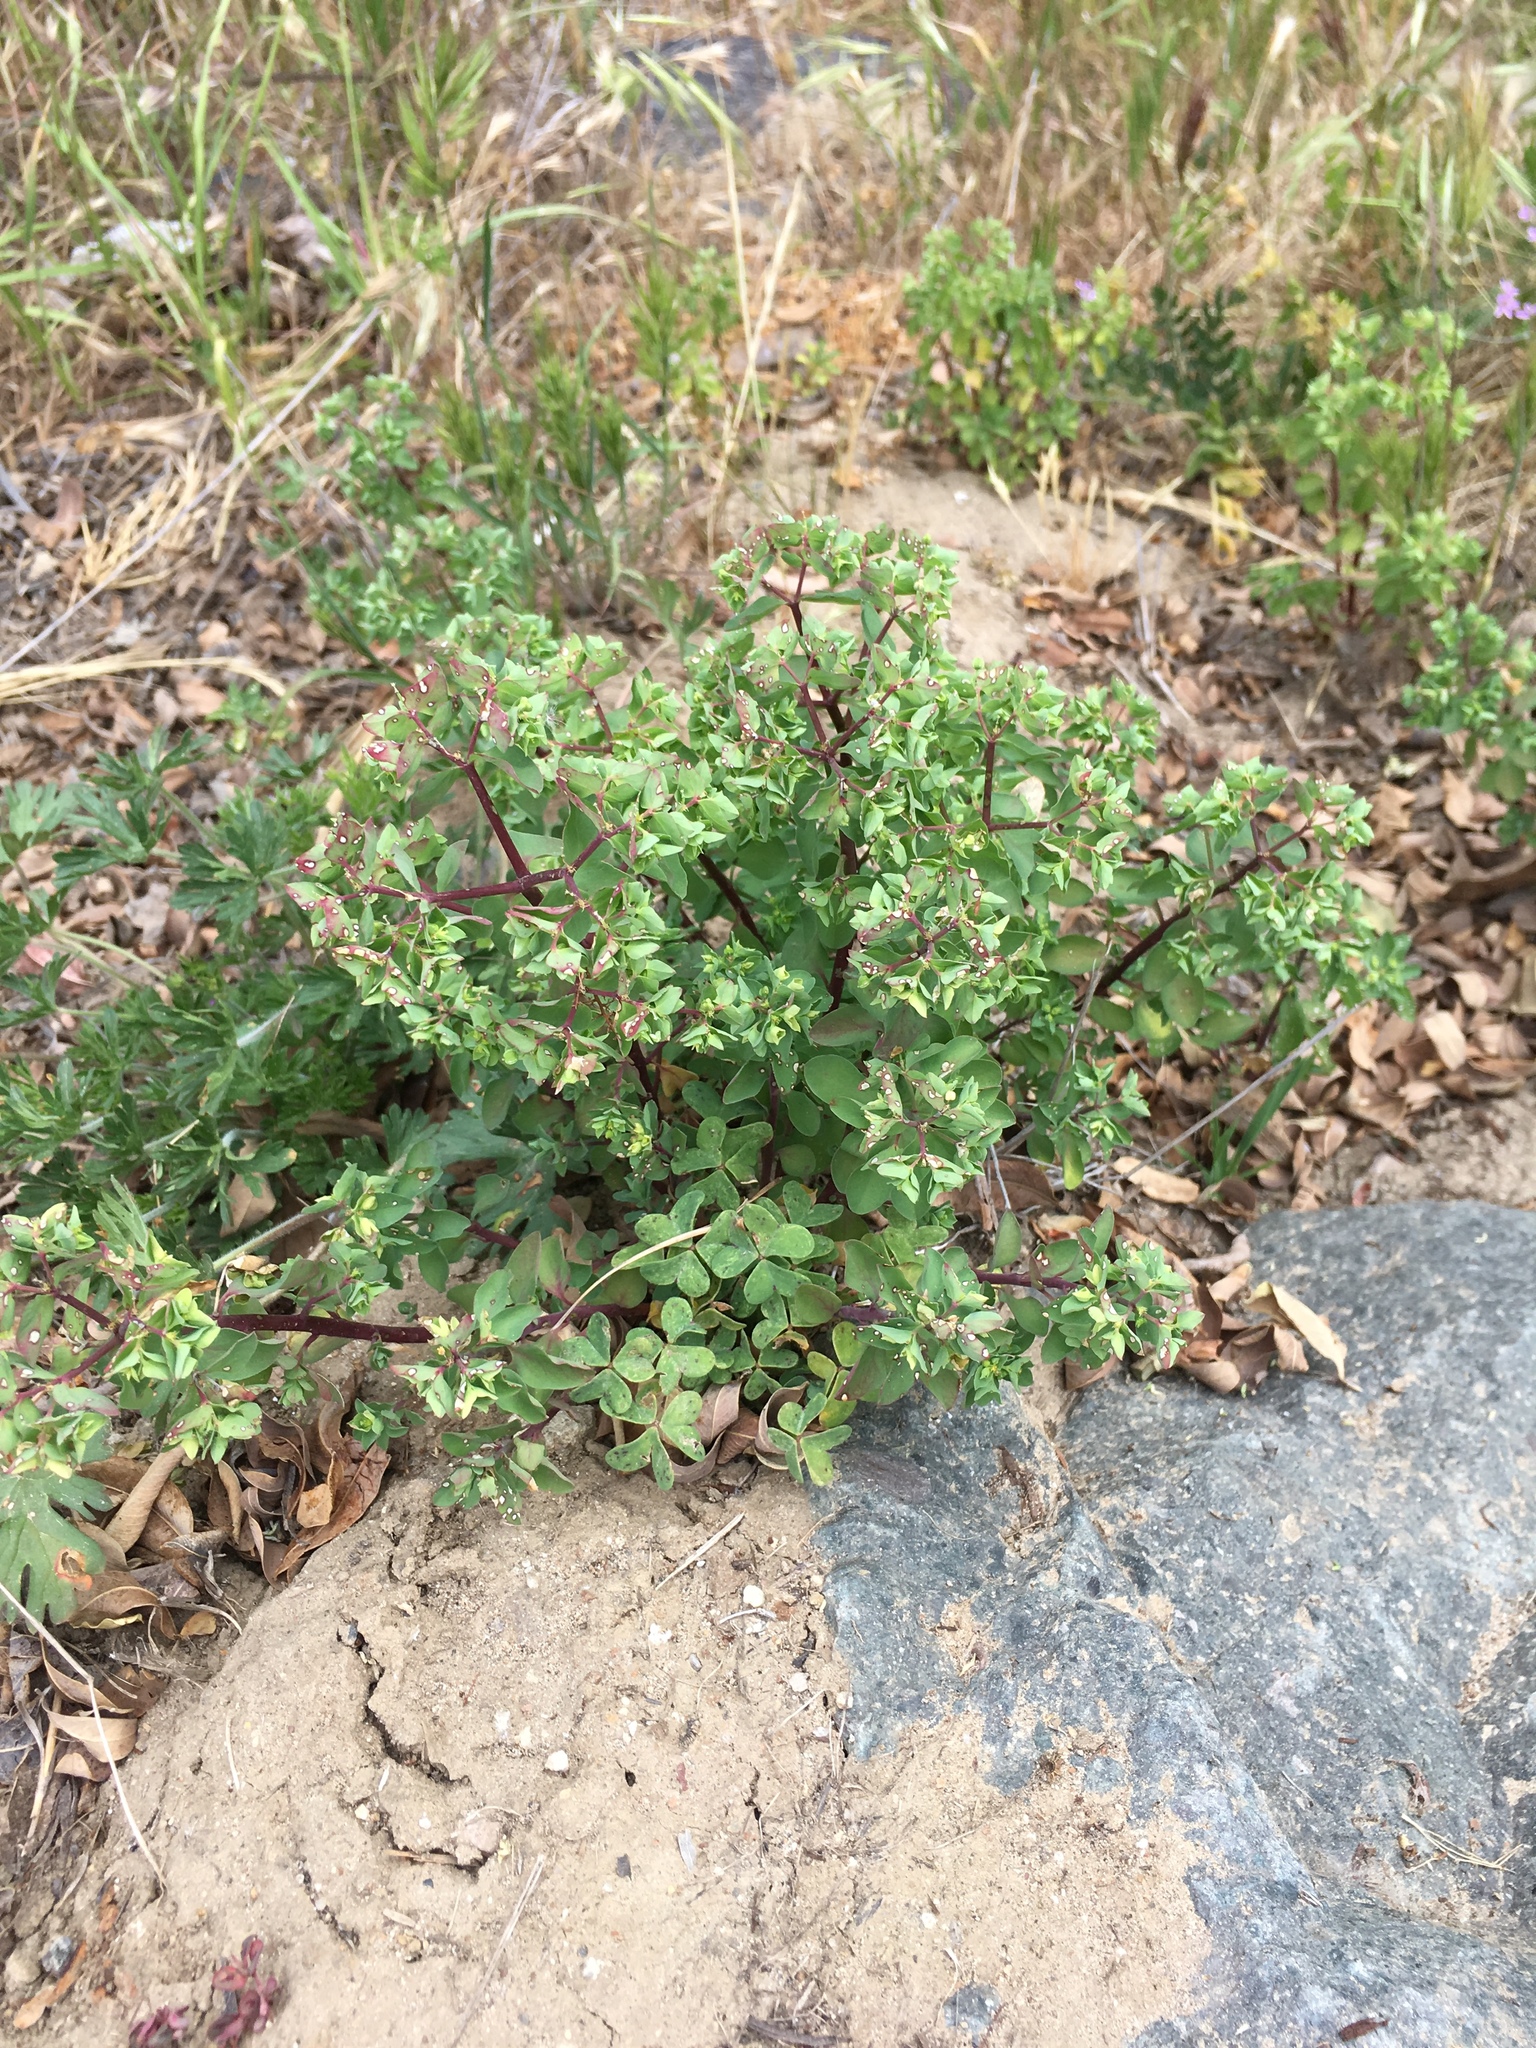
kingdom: Plantae
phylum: Tracheophyta
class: Magnoliopsida
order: Malpighiales
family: Euphorbiaceae
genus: Euphorbia
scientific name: Euphorbia peplus
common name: Petty spurge
